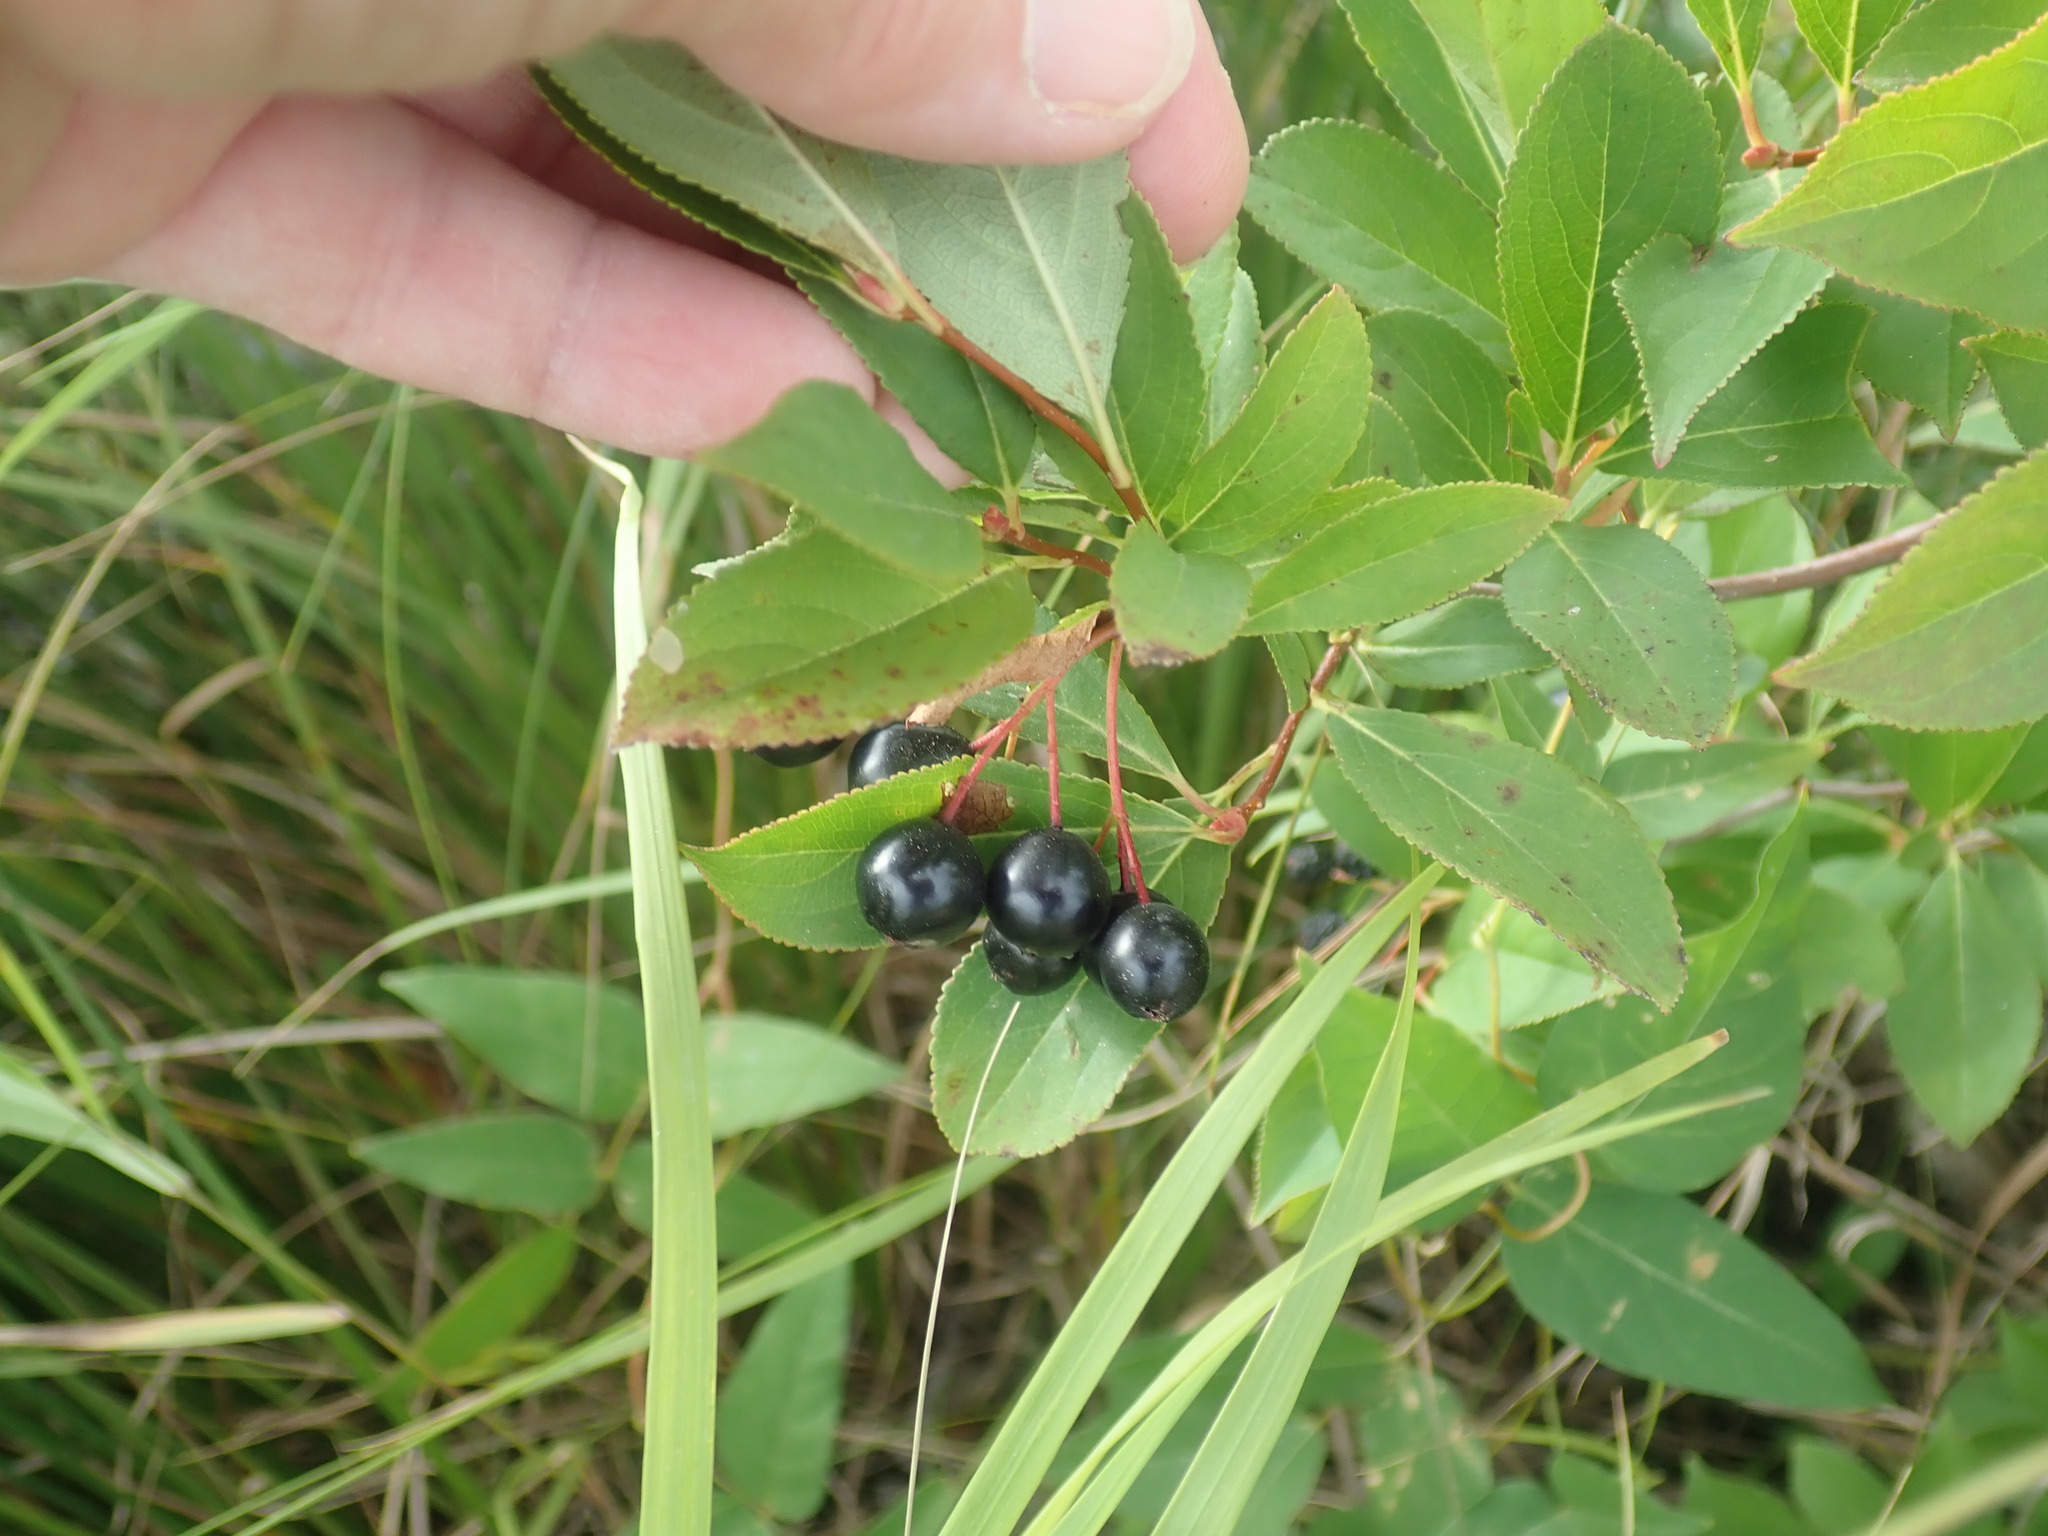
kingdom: Plantae
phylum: Tracheophyta
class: Magnoliopsida
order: Rosales
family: Rosaceae
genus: Aronia
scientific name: Aronia melanocarpa
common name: Black chokeberry
